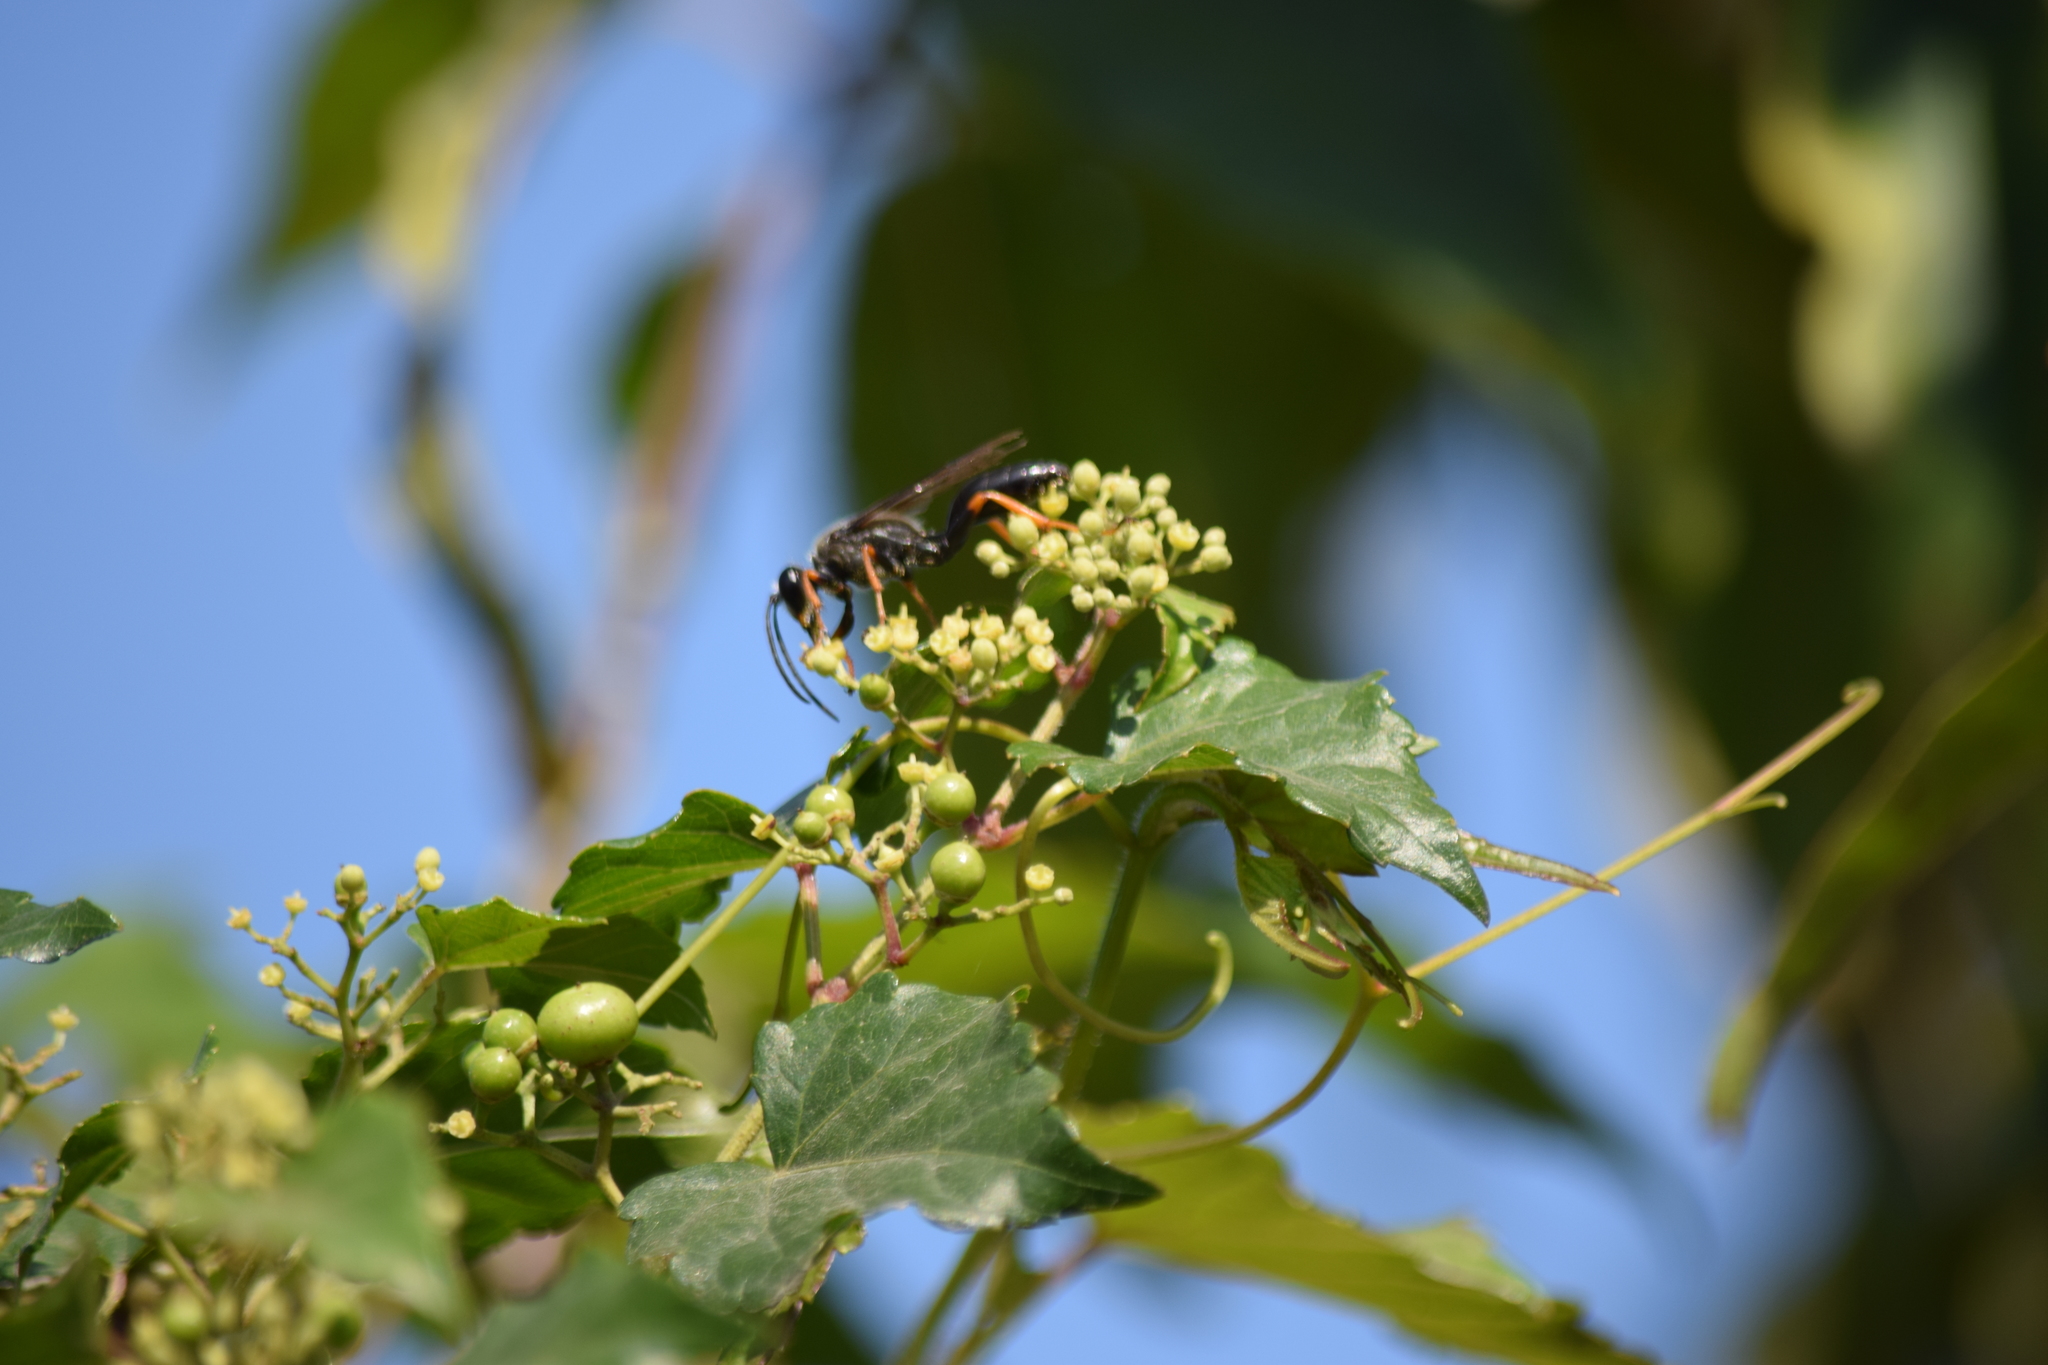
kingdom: Animalia
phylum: Arthropoda
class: Insecta
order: Hymenoptera
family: Sphecidae
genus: Sphex
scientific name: Sphex nudus
